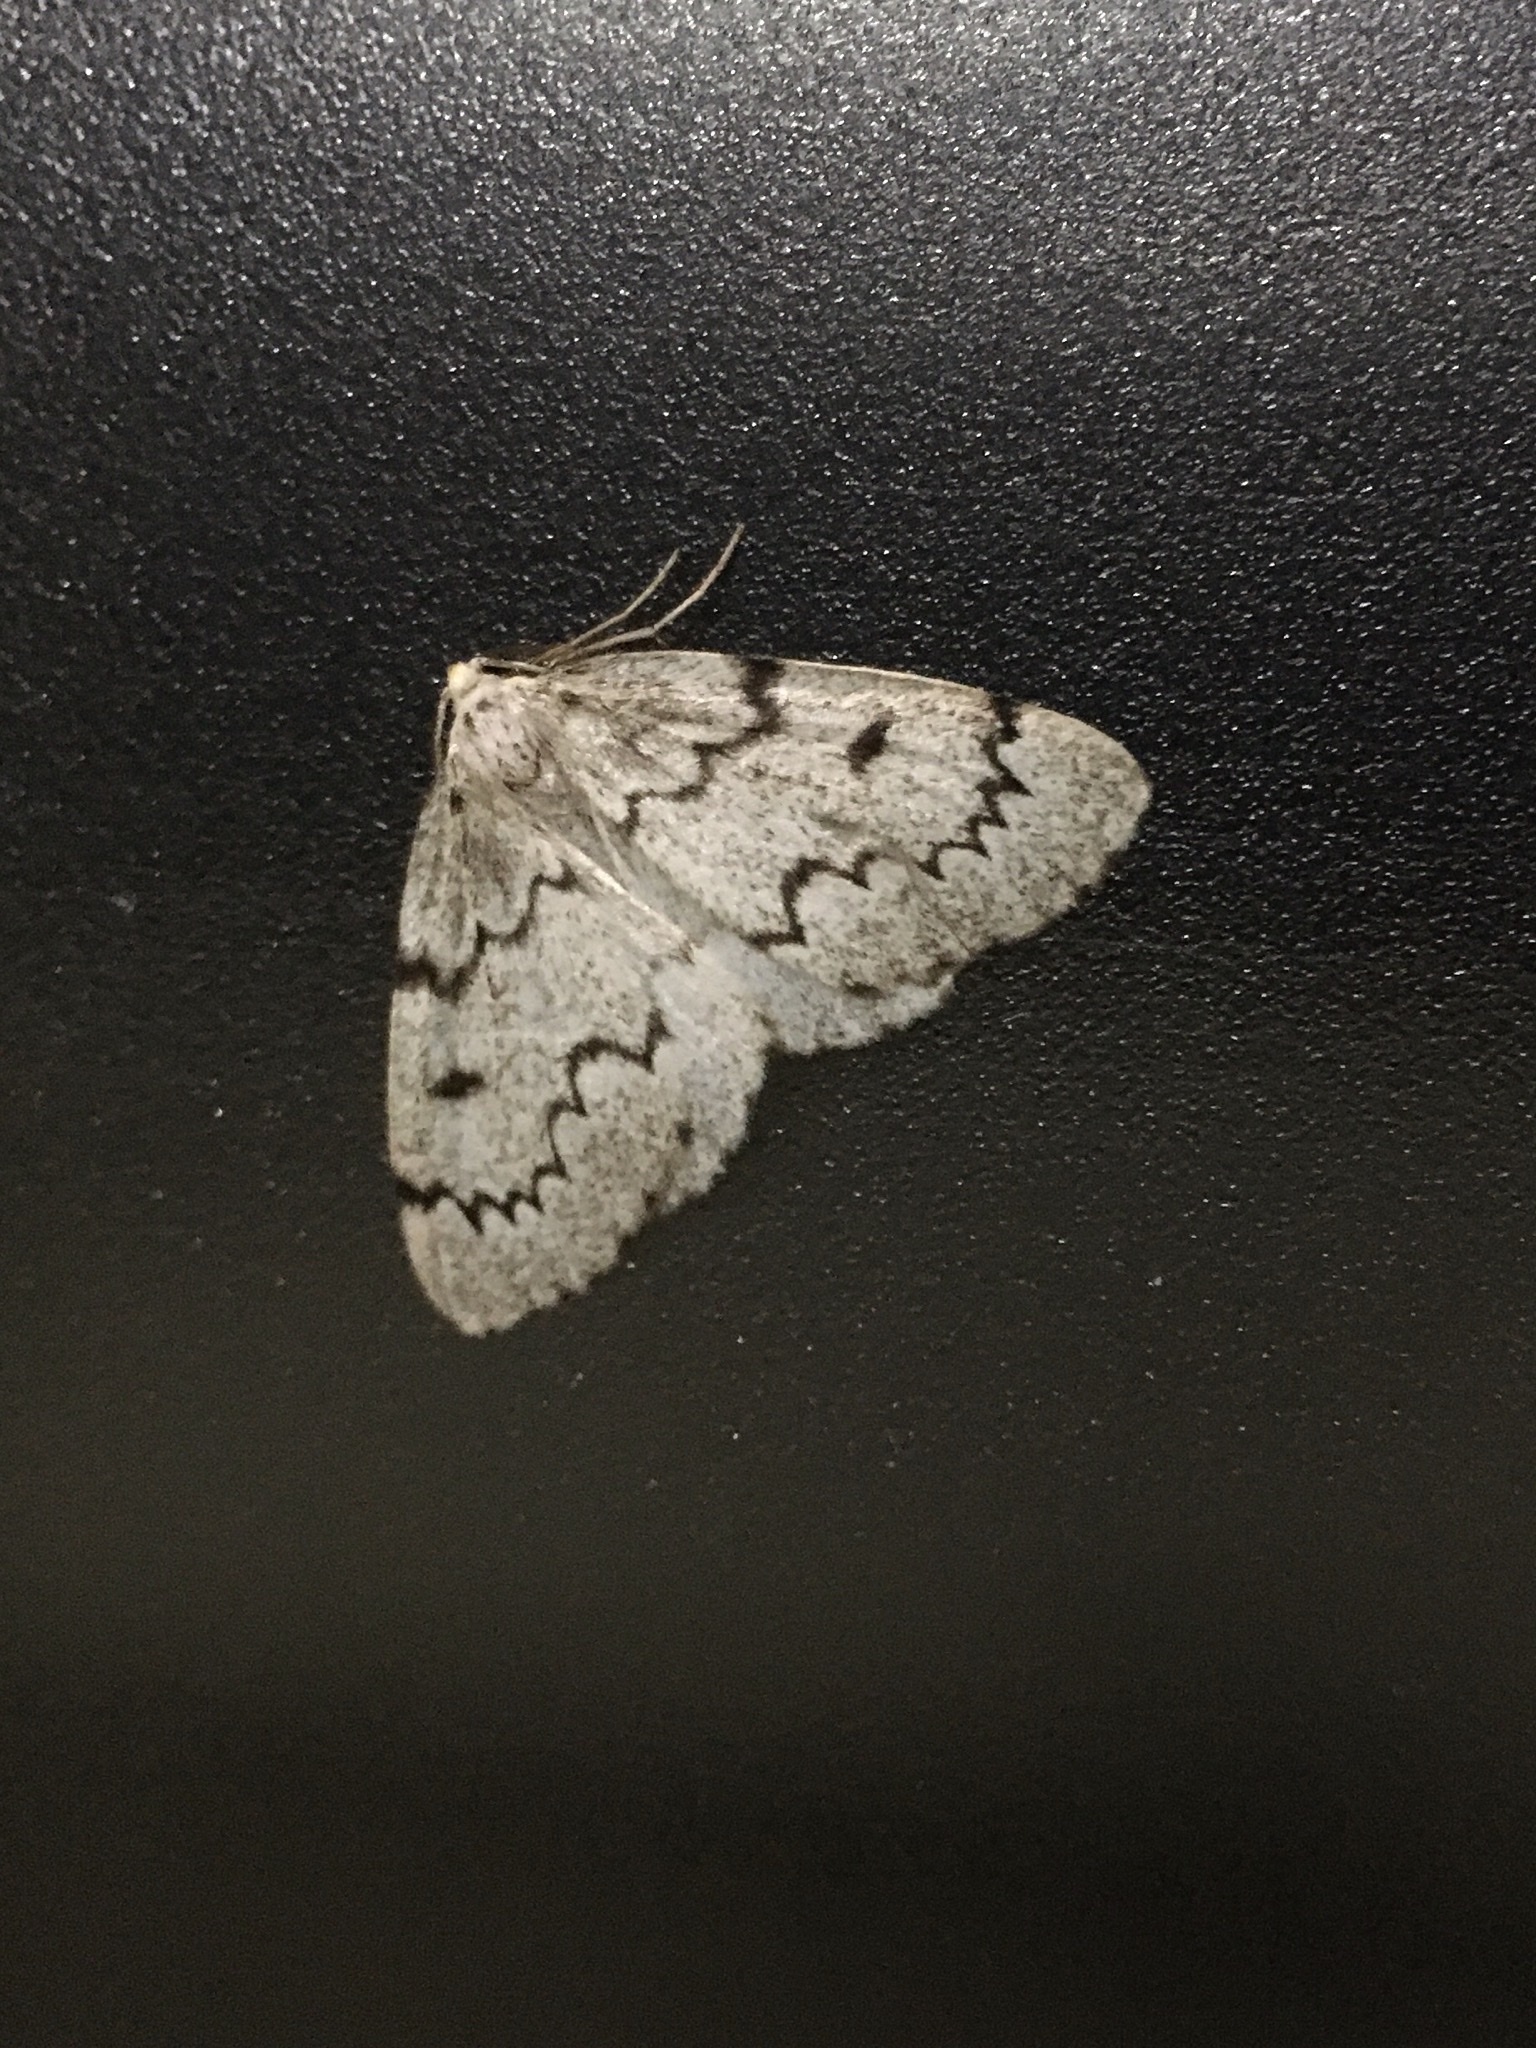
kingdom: Animalia
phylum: Arthropoda
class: Insecta
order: Lepidoptera
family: Geometridae
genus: Nepytia
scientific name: Nepytia canosaria
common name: False hemlock looper
